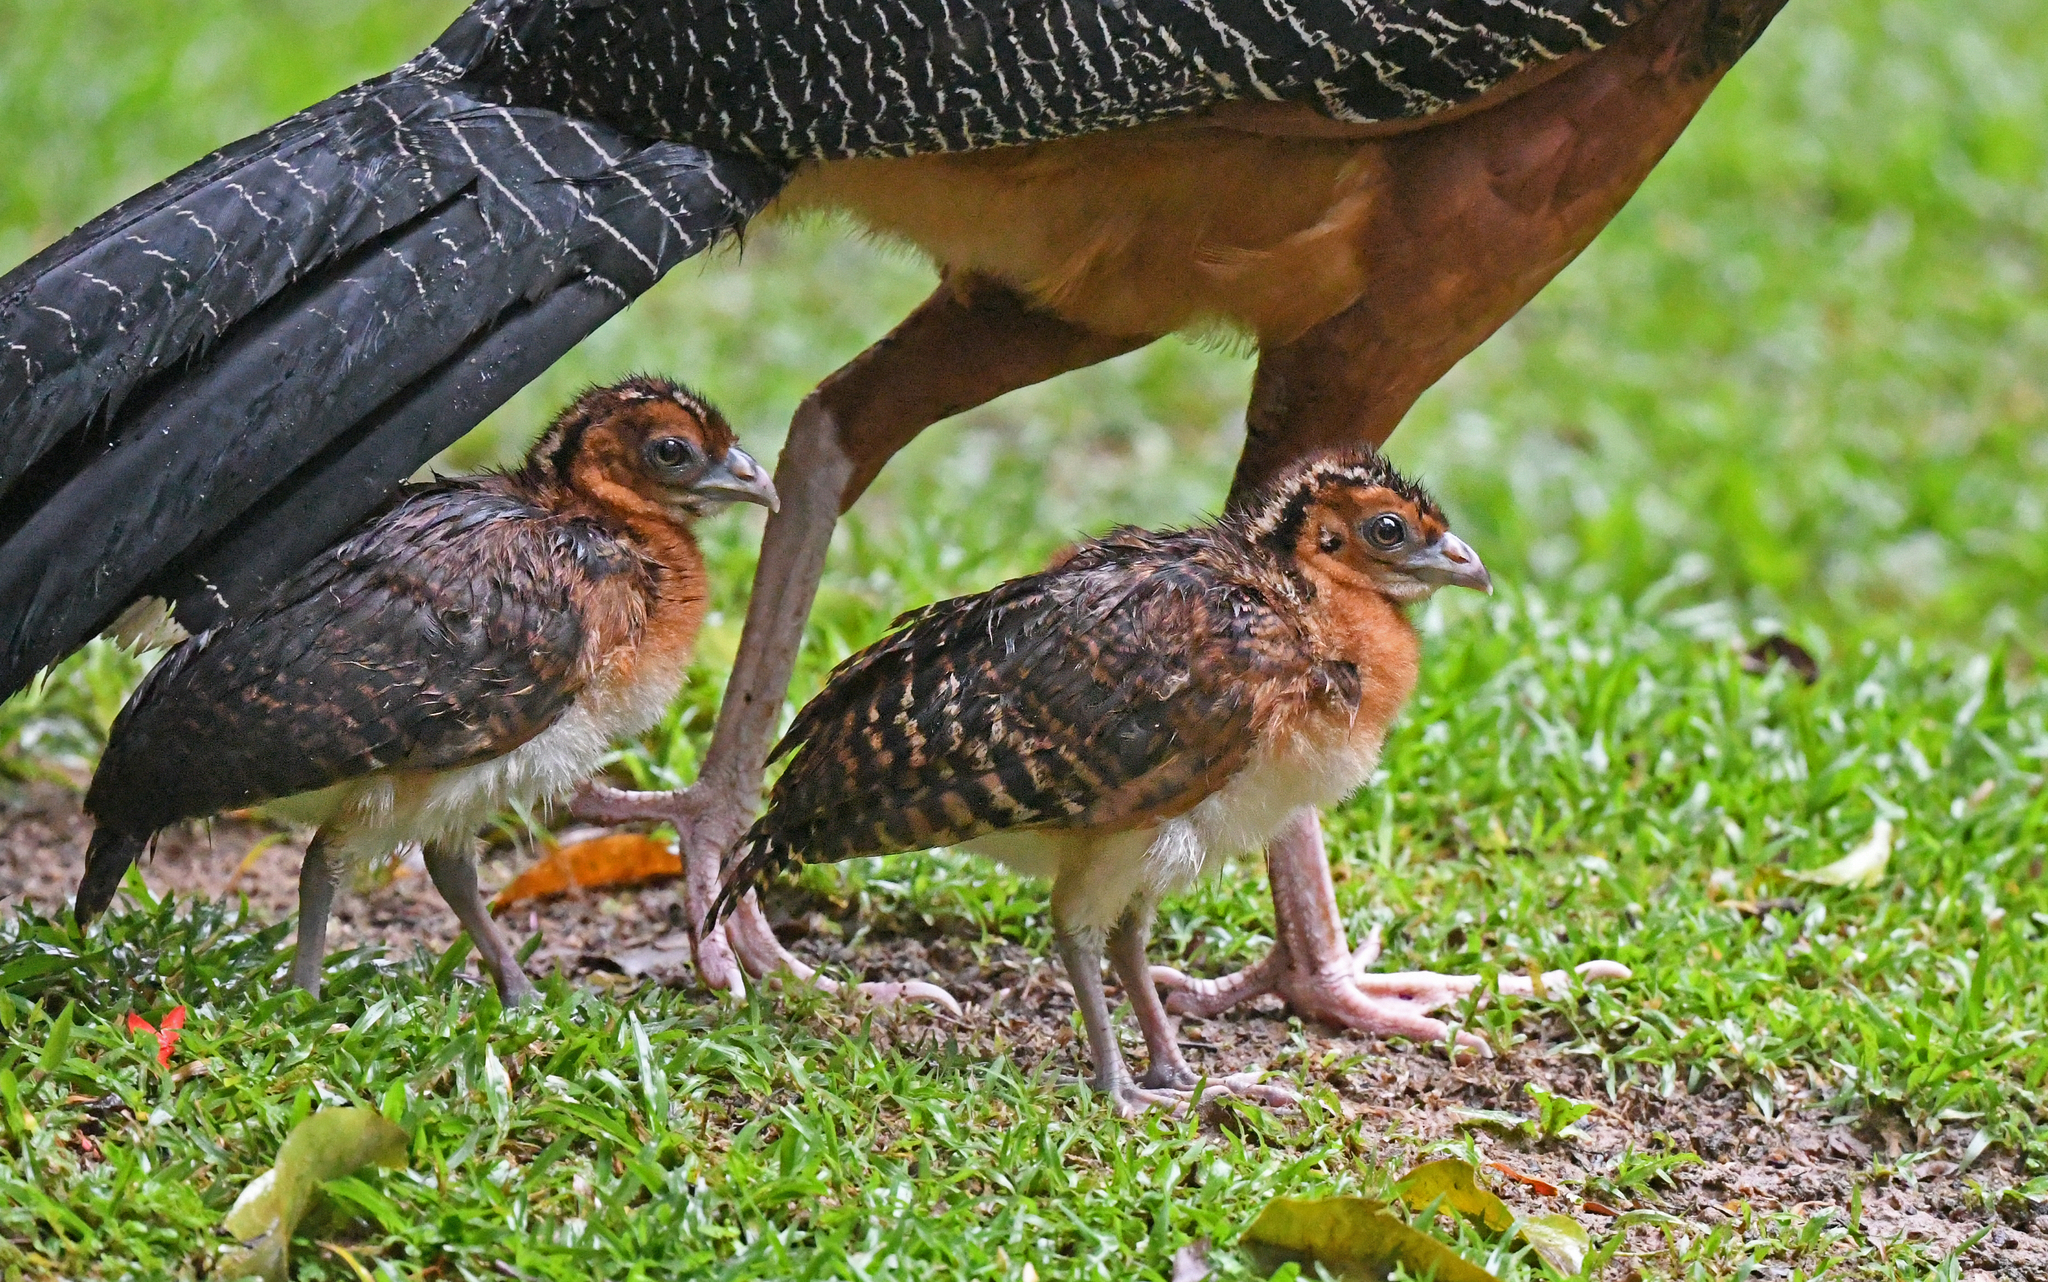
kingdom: Animalia
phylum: Chordata
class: Aves
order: Galliformes
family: Cracidae
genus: Crax
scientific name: Crax alberti
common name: Blue-billed curassow
